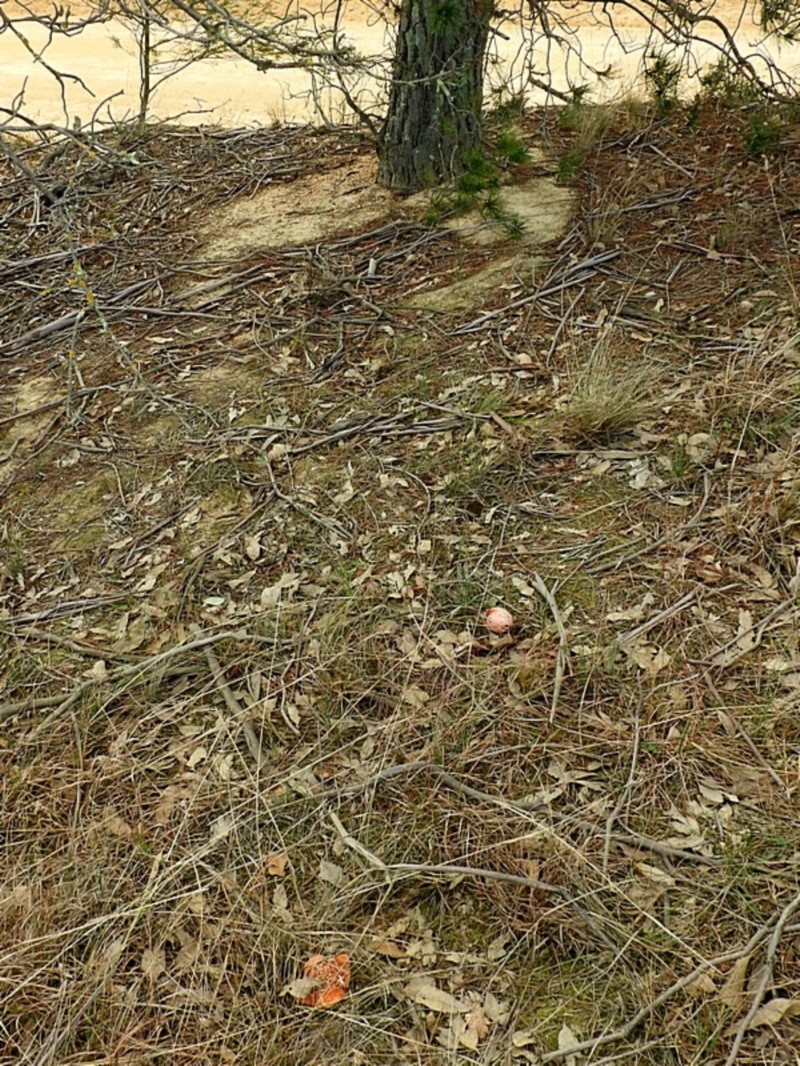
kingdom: Fungi
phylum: Basidiomycota
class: Agaricomycetes
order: Agaricales
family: Amanitaceae
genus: Amanita
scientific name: Amanita muscaria
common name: Fly agaric
